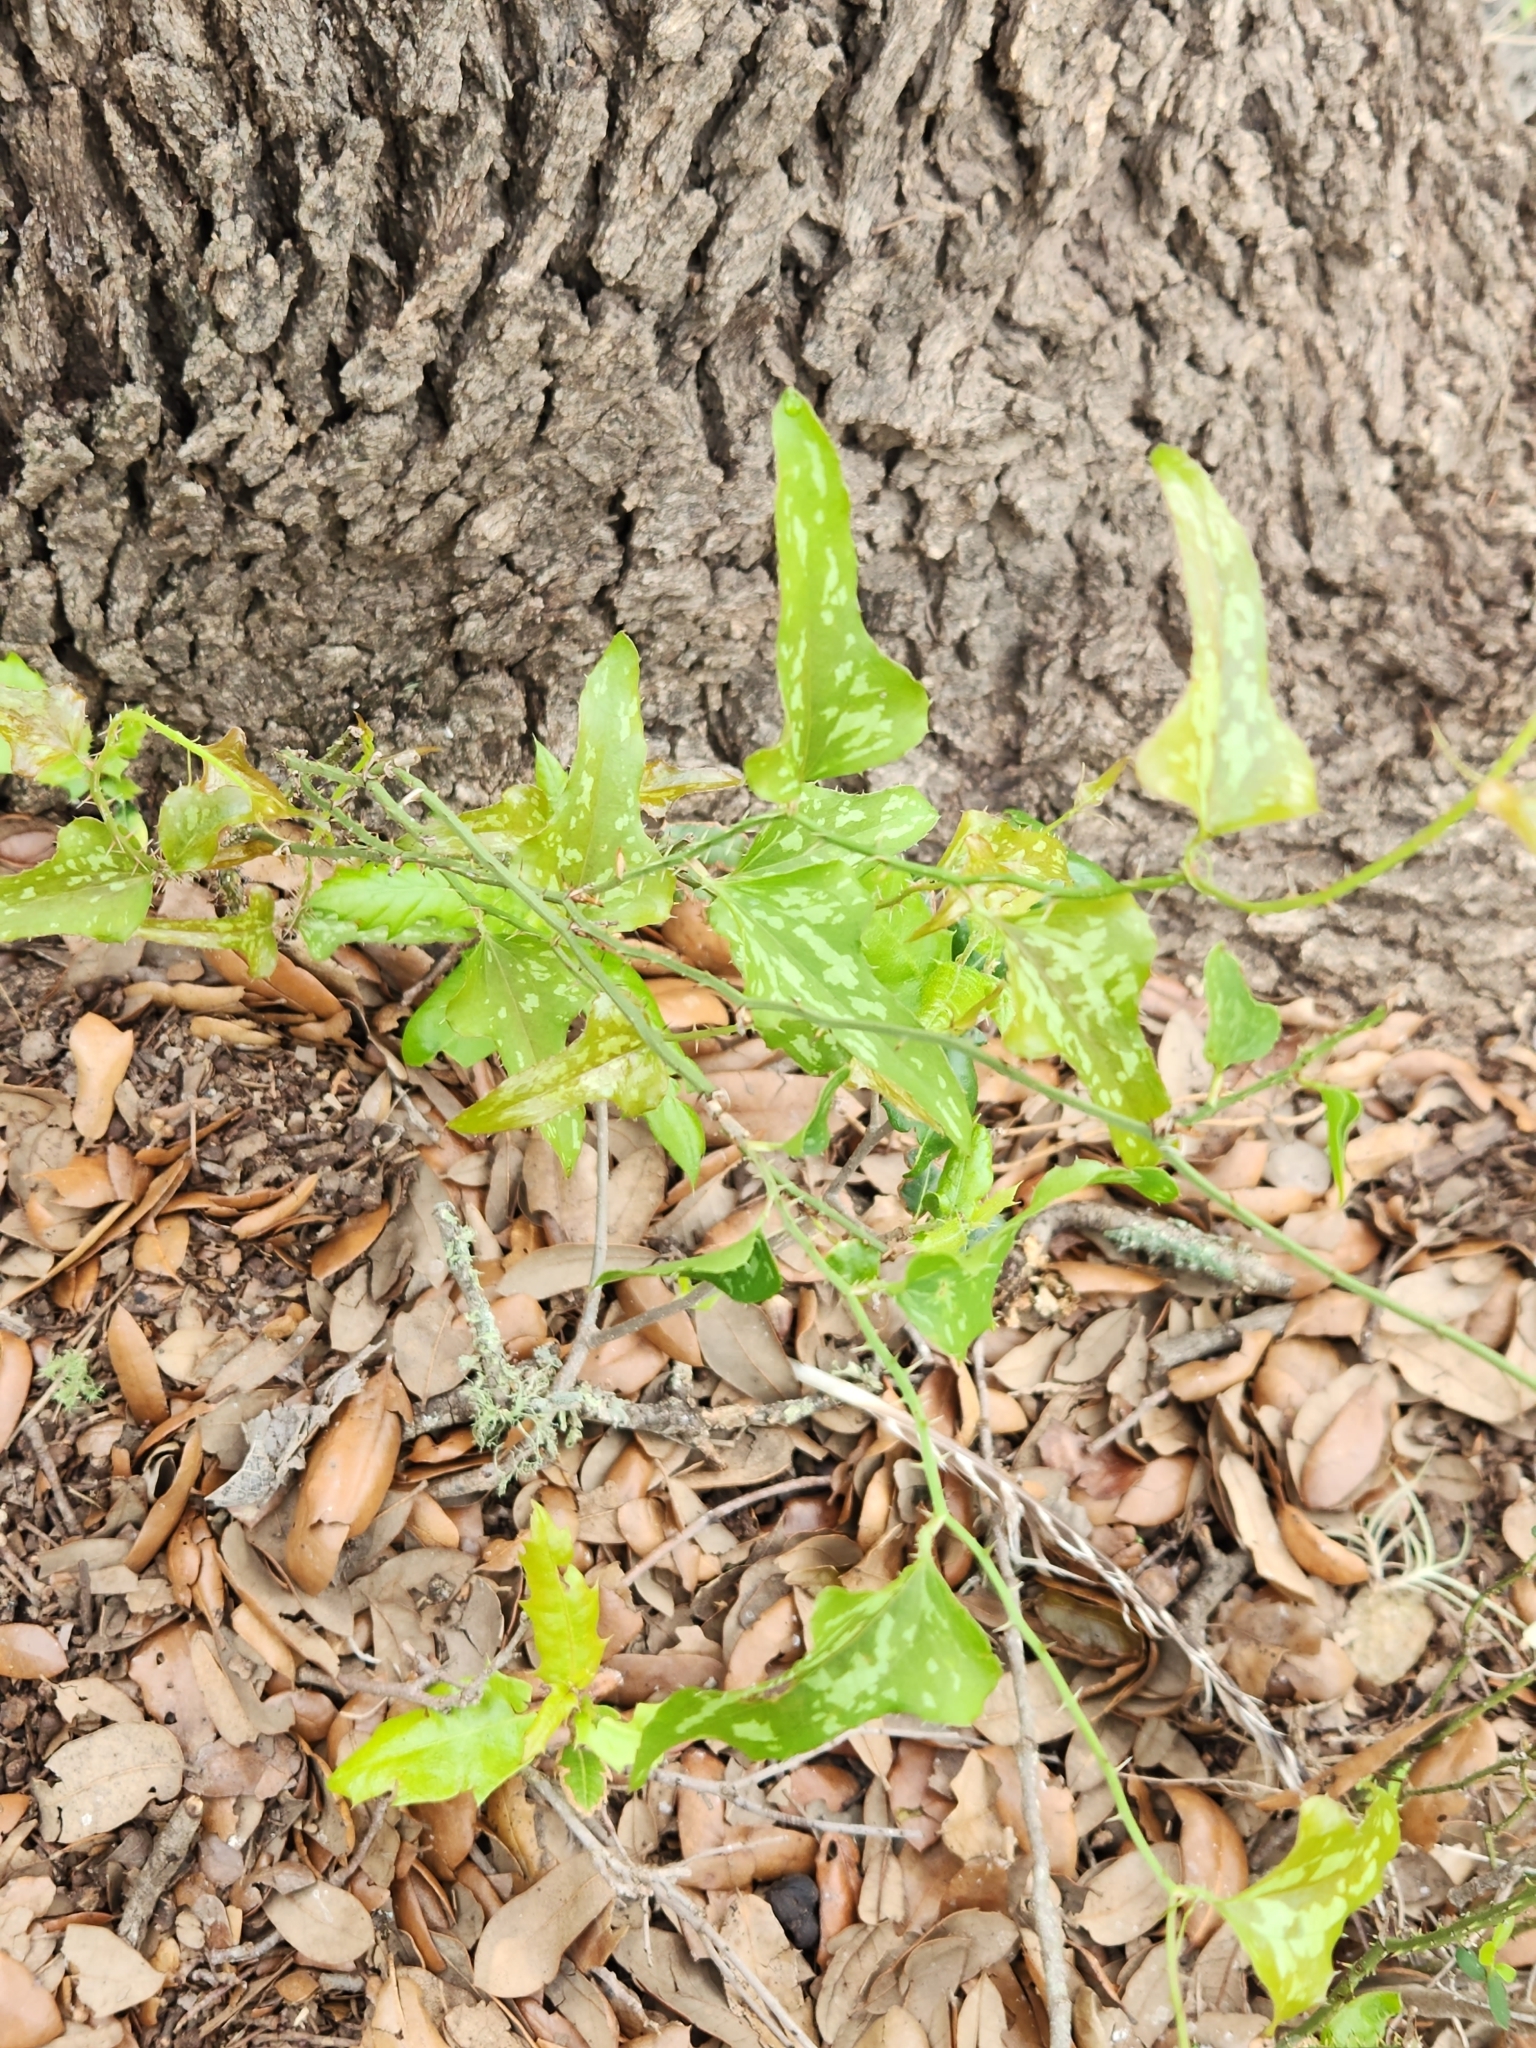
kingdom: Plantae
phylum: Tracheophyta
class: Liliopsida
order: Liliales
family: Smilacaceae
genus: Smilax
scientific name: Smilax bona-nox
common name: Catbrier
